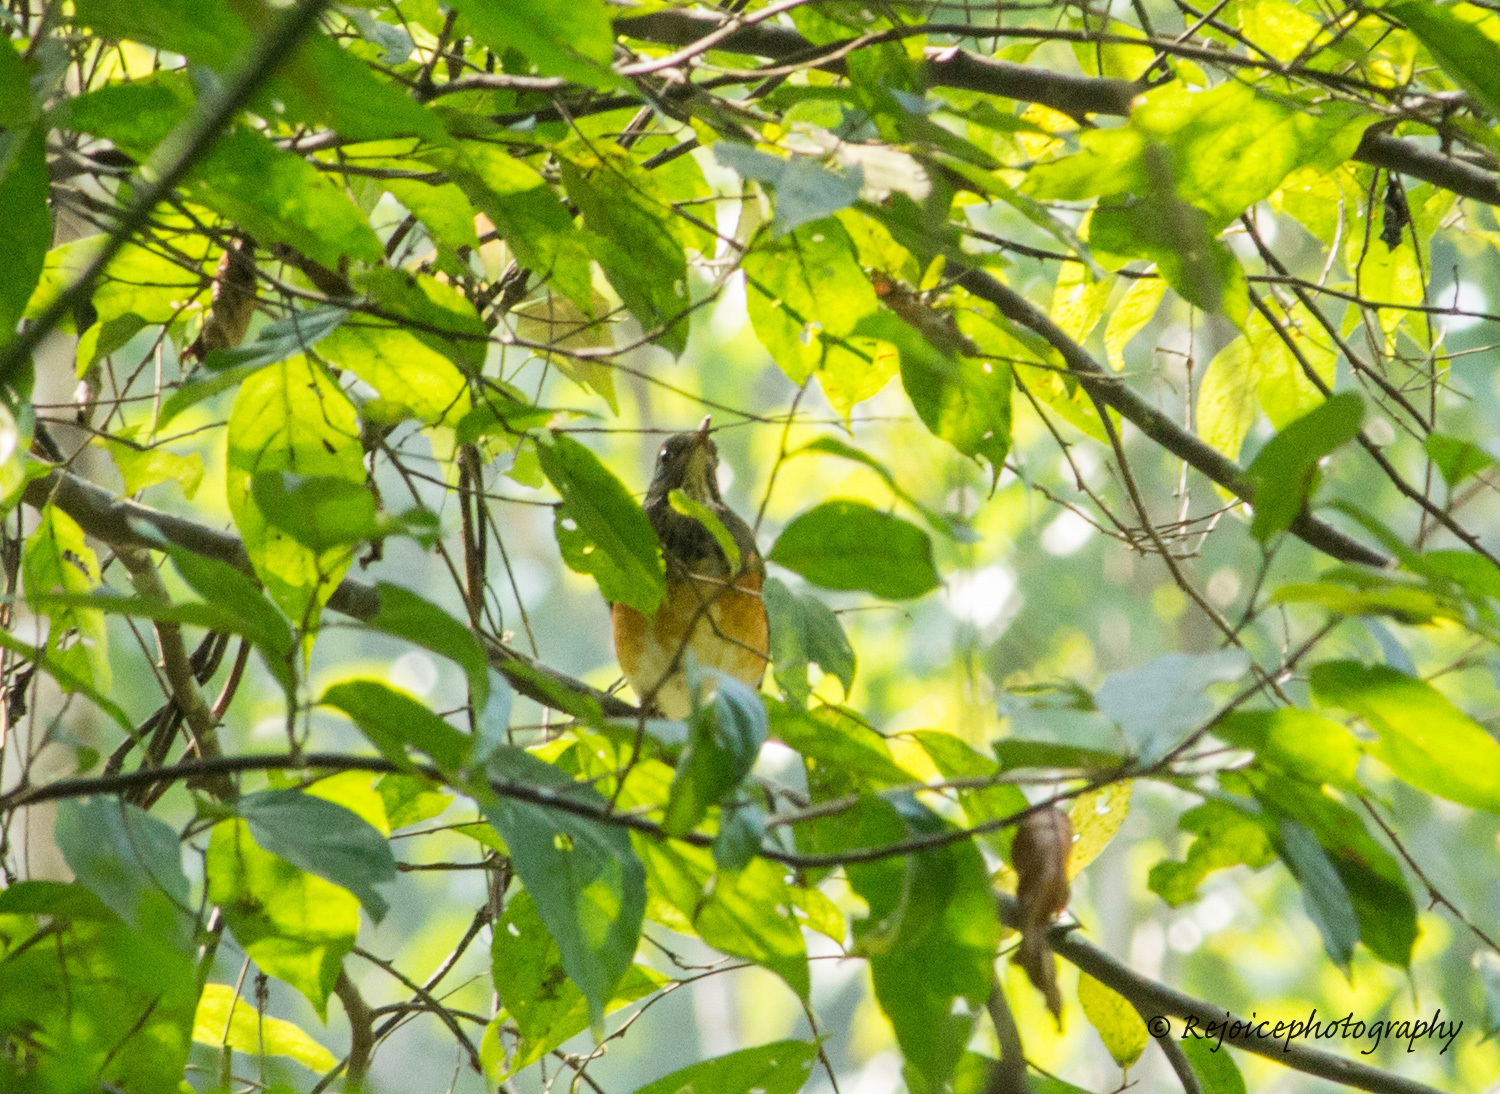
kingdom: Animalia
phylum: Chordata
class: Aves
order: Passeriformes
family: Turdidae
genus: Turdus
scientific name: Turdus dissimilis
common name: Black-breasted thrush
